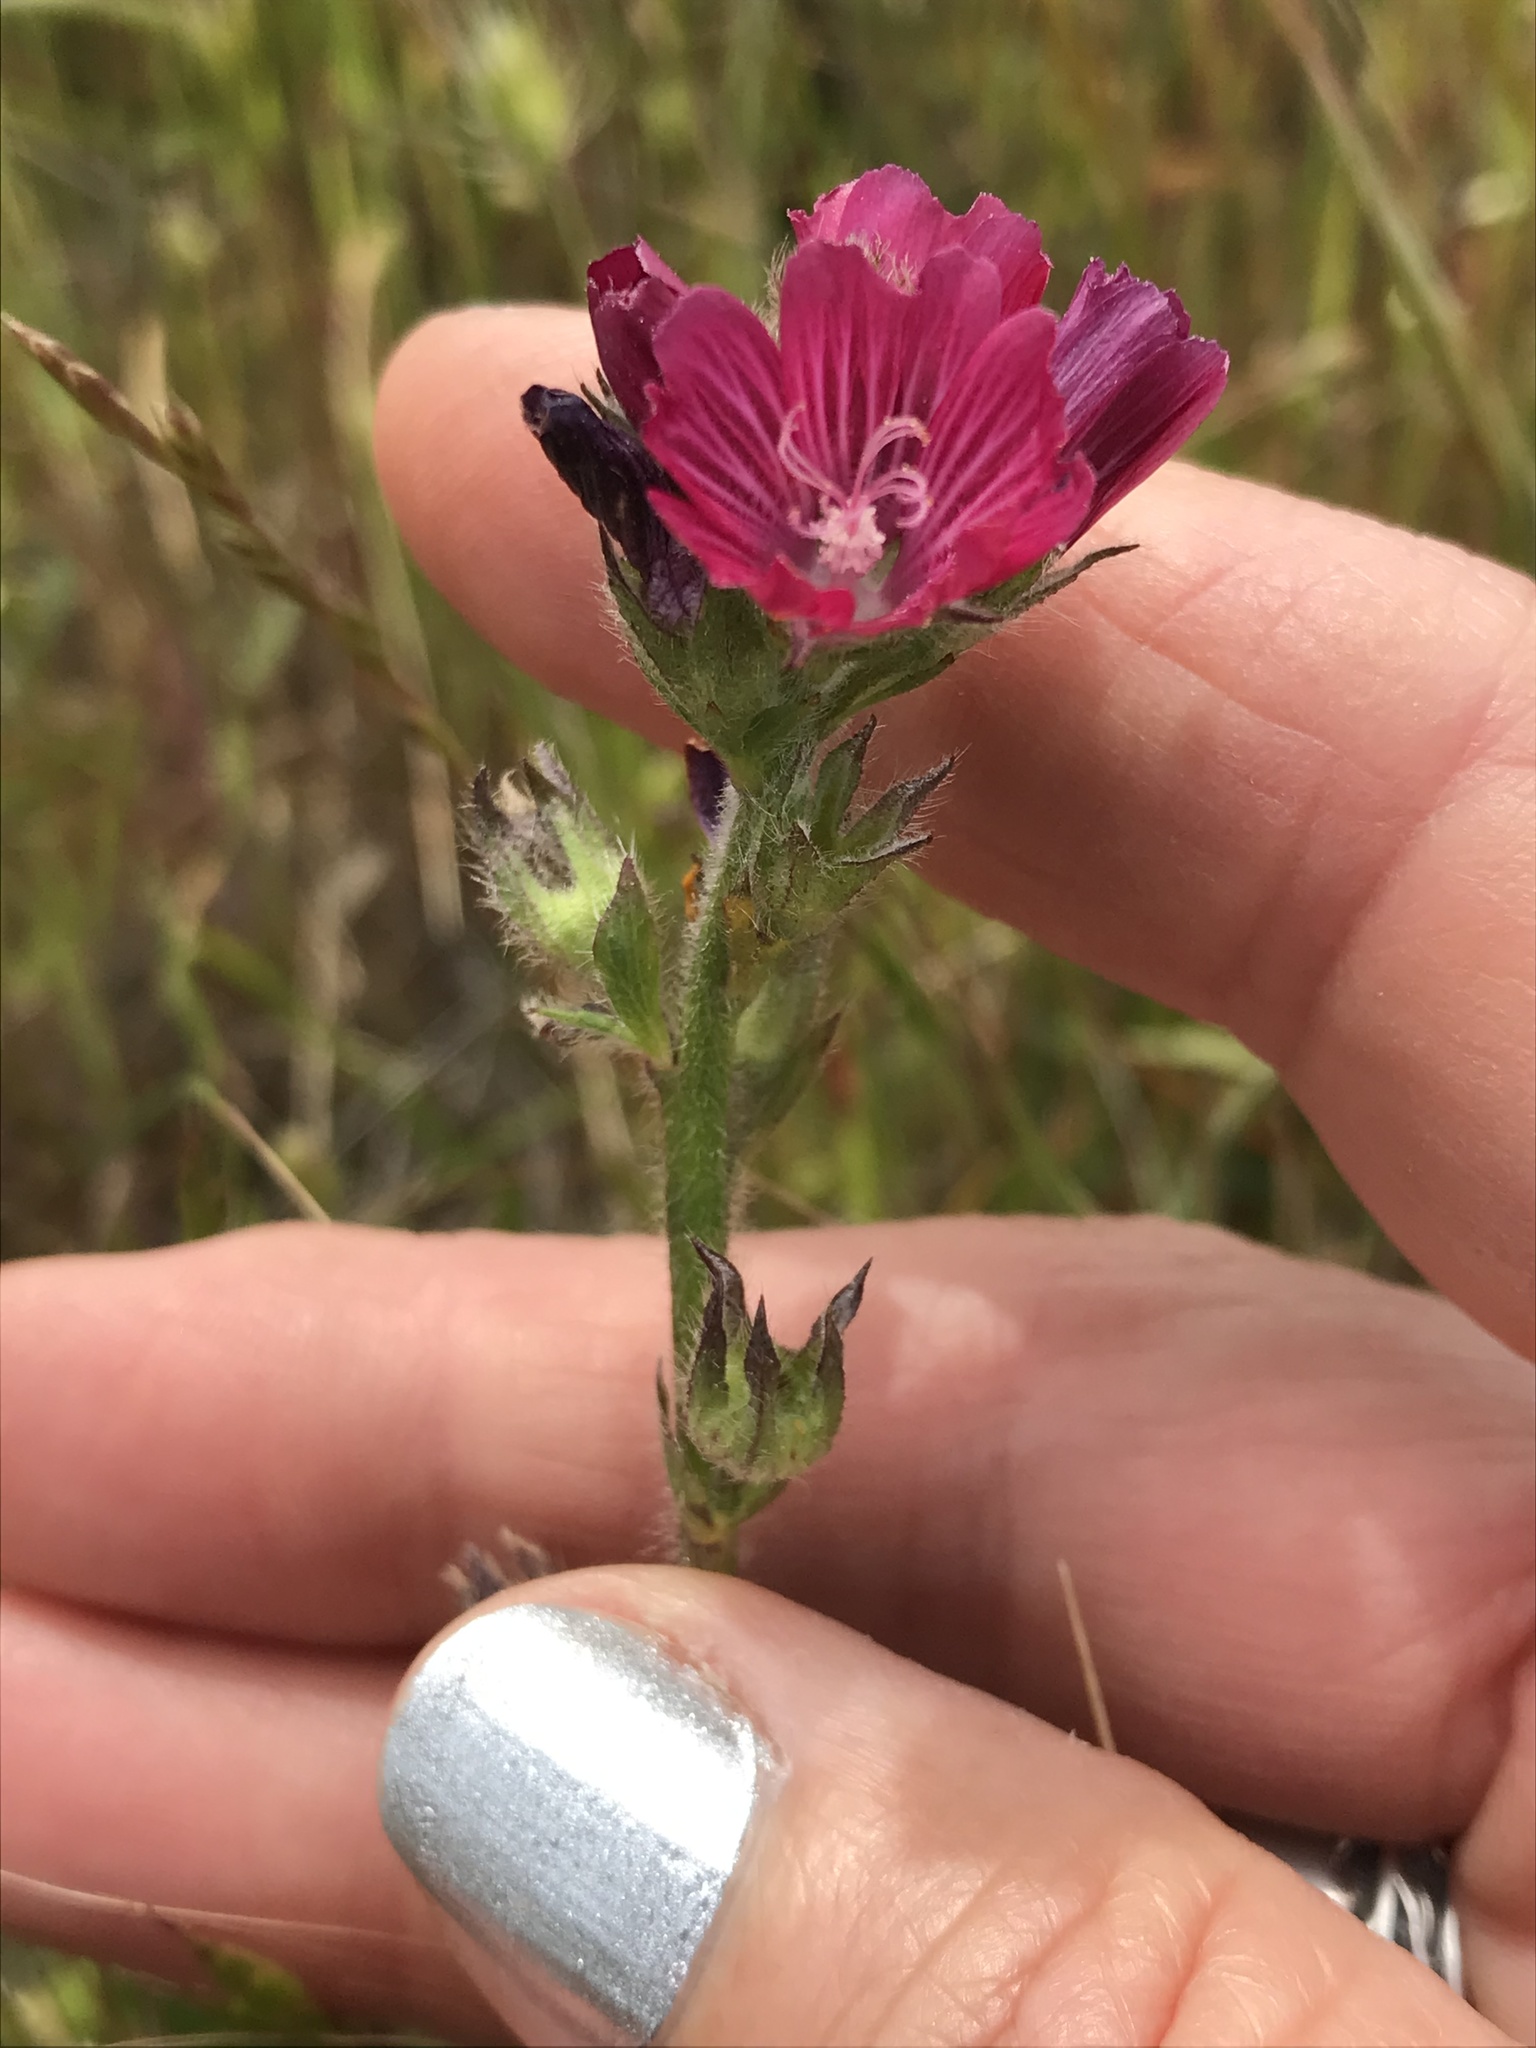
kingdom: Plantae
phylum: Tracheophyta
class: Magnoliopsida
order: Malvales
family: Malvaceae
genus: Sidalcea
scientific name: Sidalcea malviflora
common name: Greek mallow
